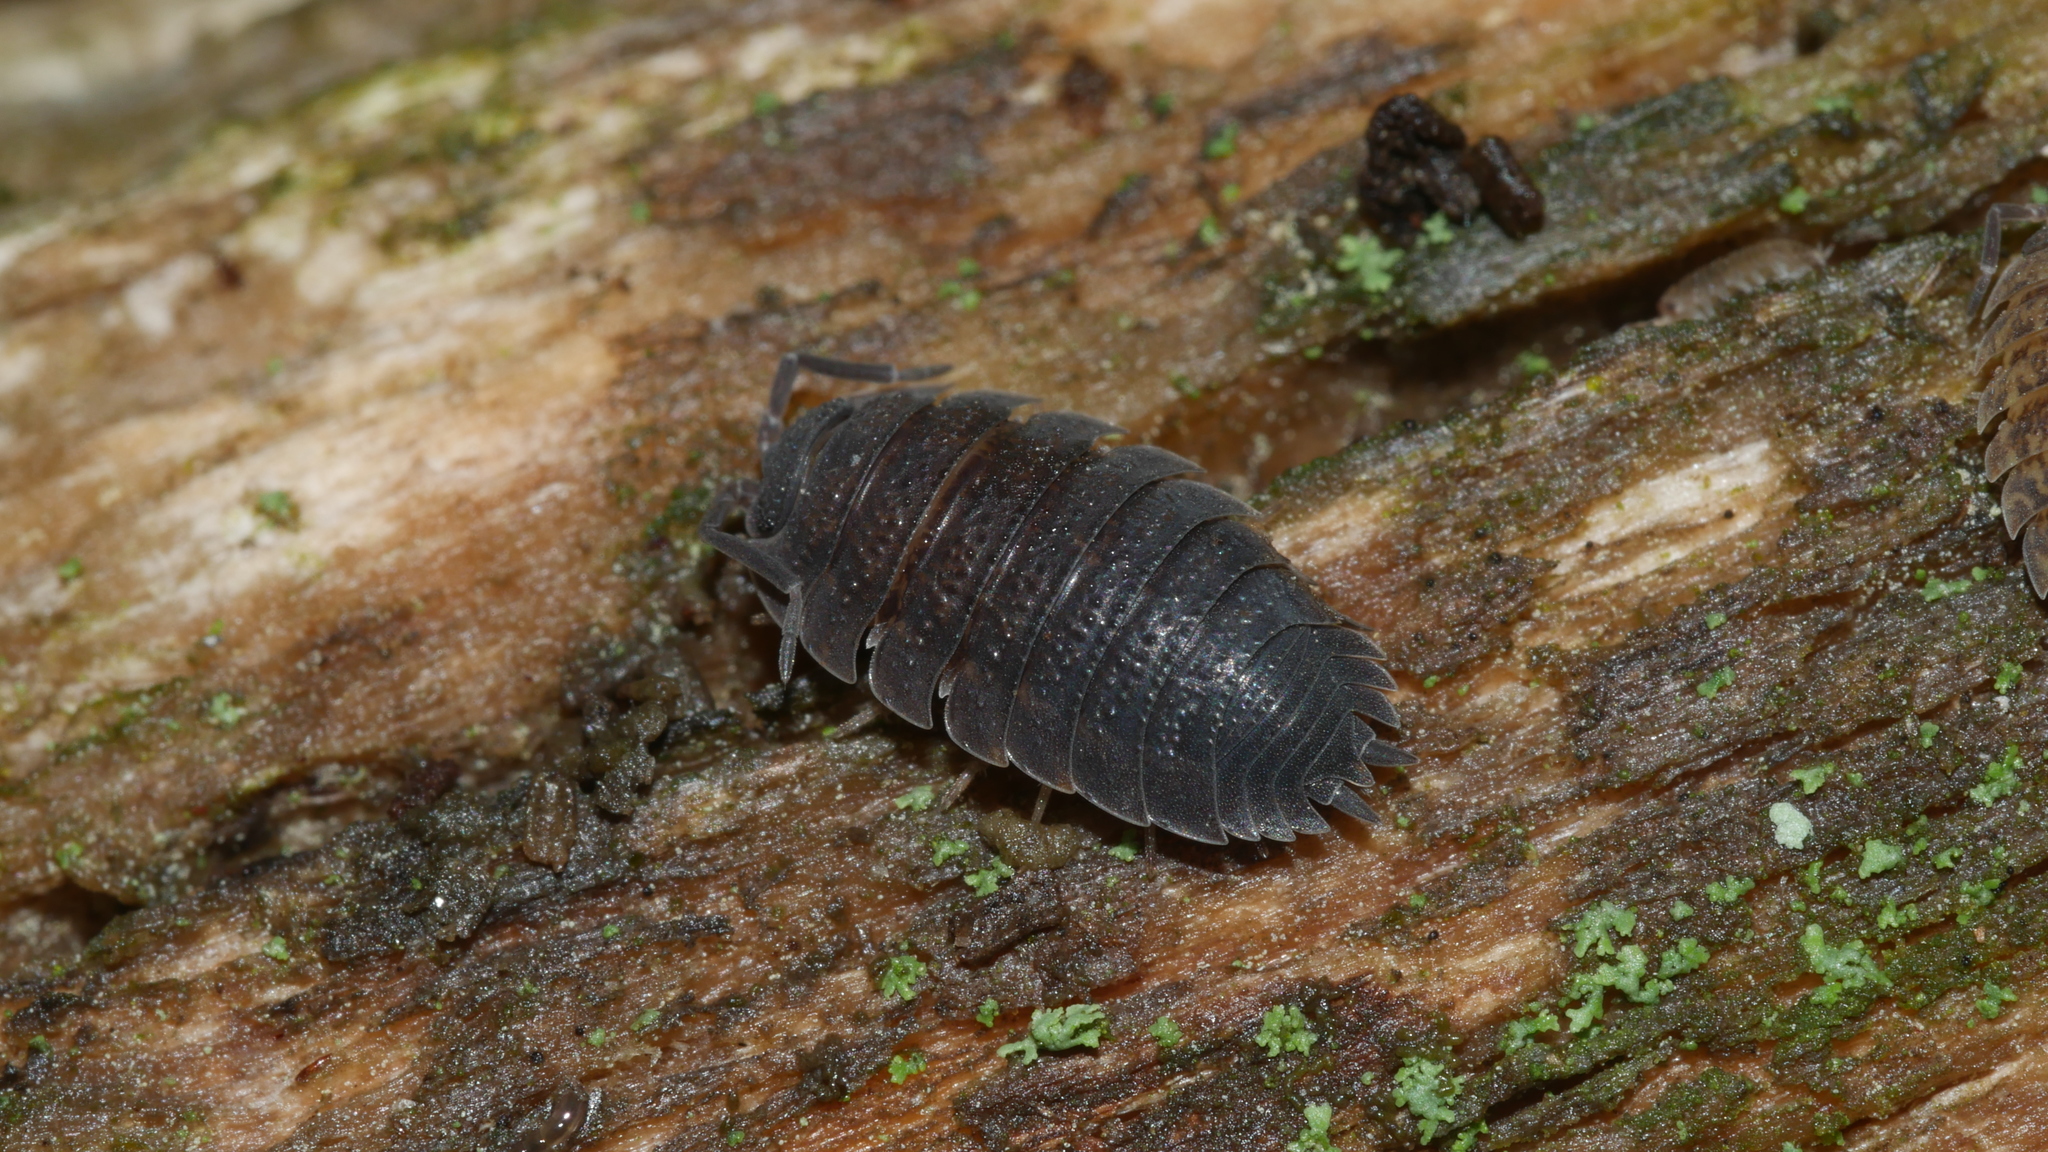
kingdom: Animalia
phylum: Arthropoda
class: Malacostraca
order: Isopoda
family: Porcellionidae
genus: Porcellio
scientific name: Porcellio scaber
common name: Common rough woodlouse
